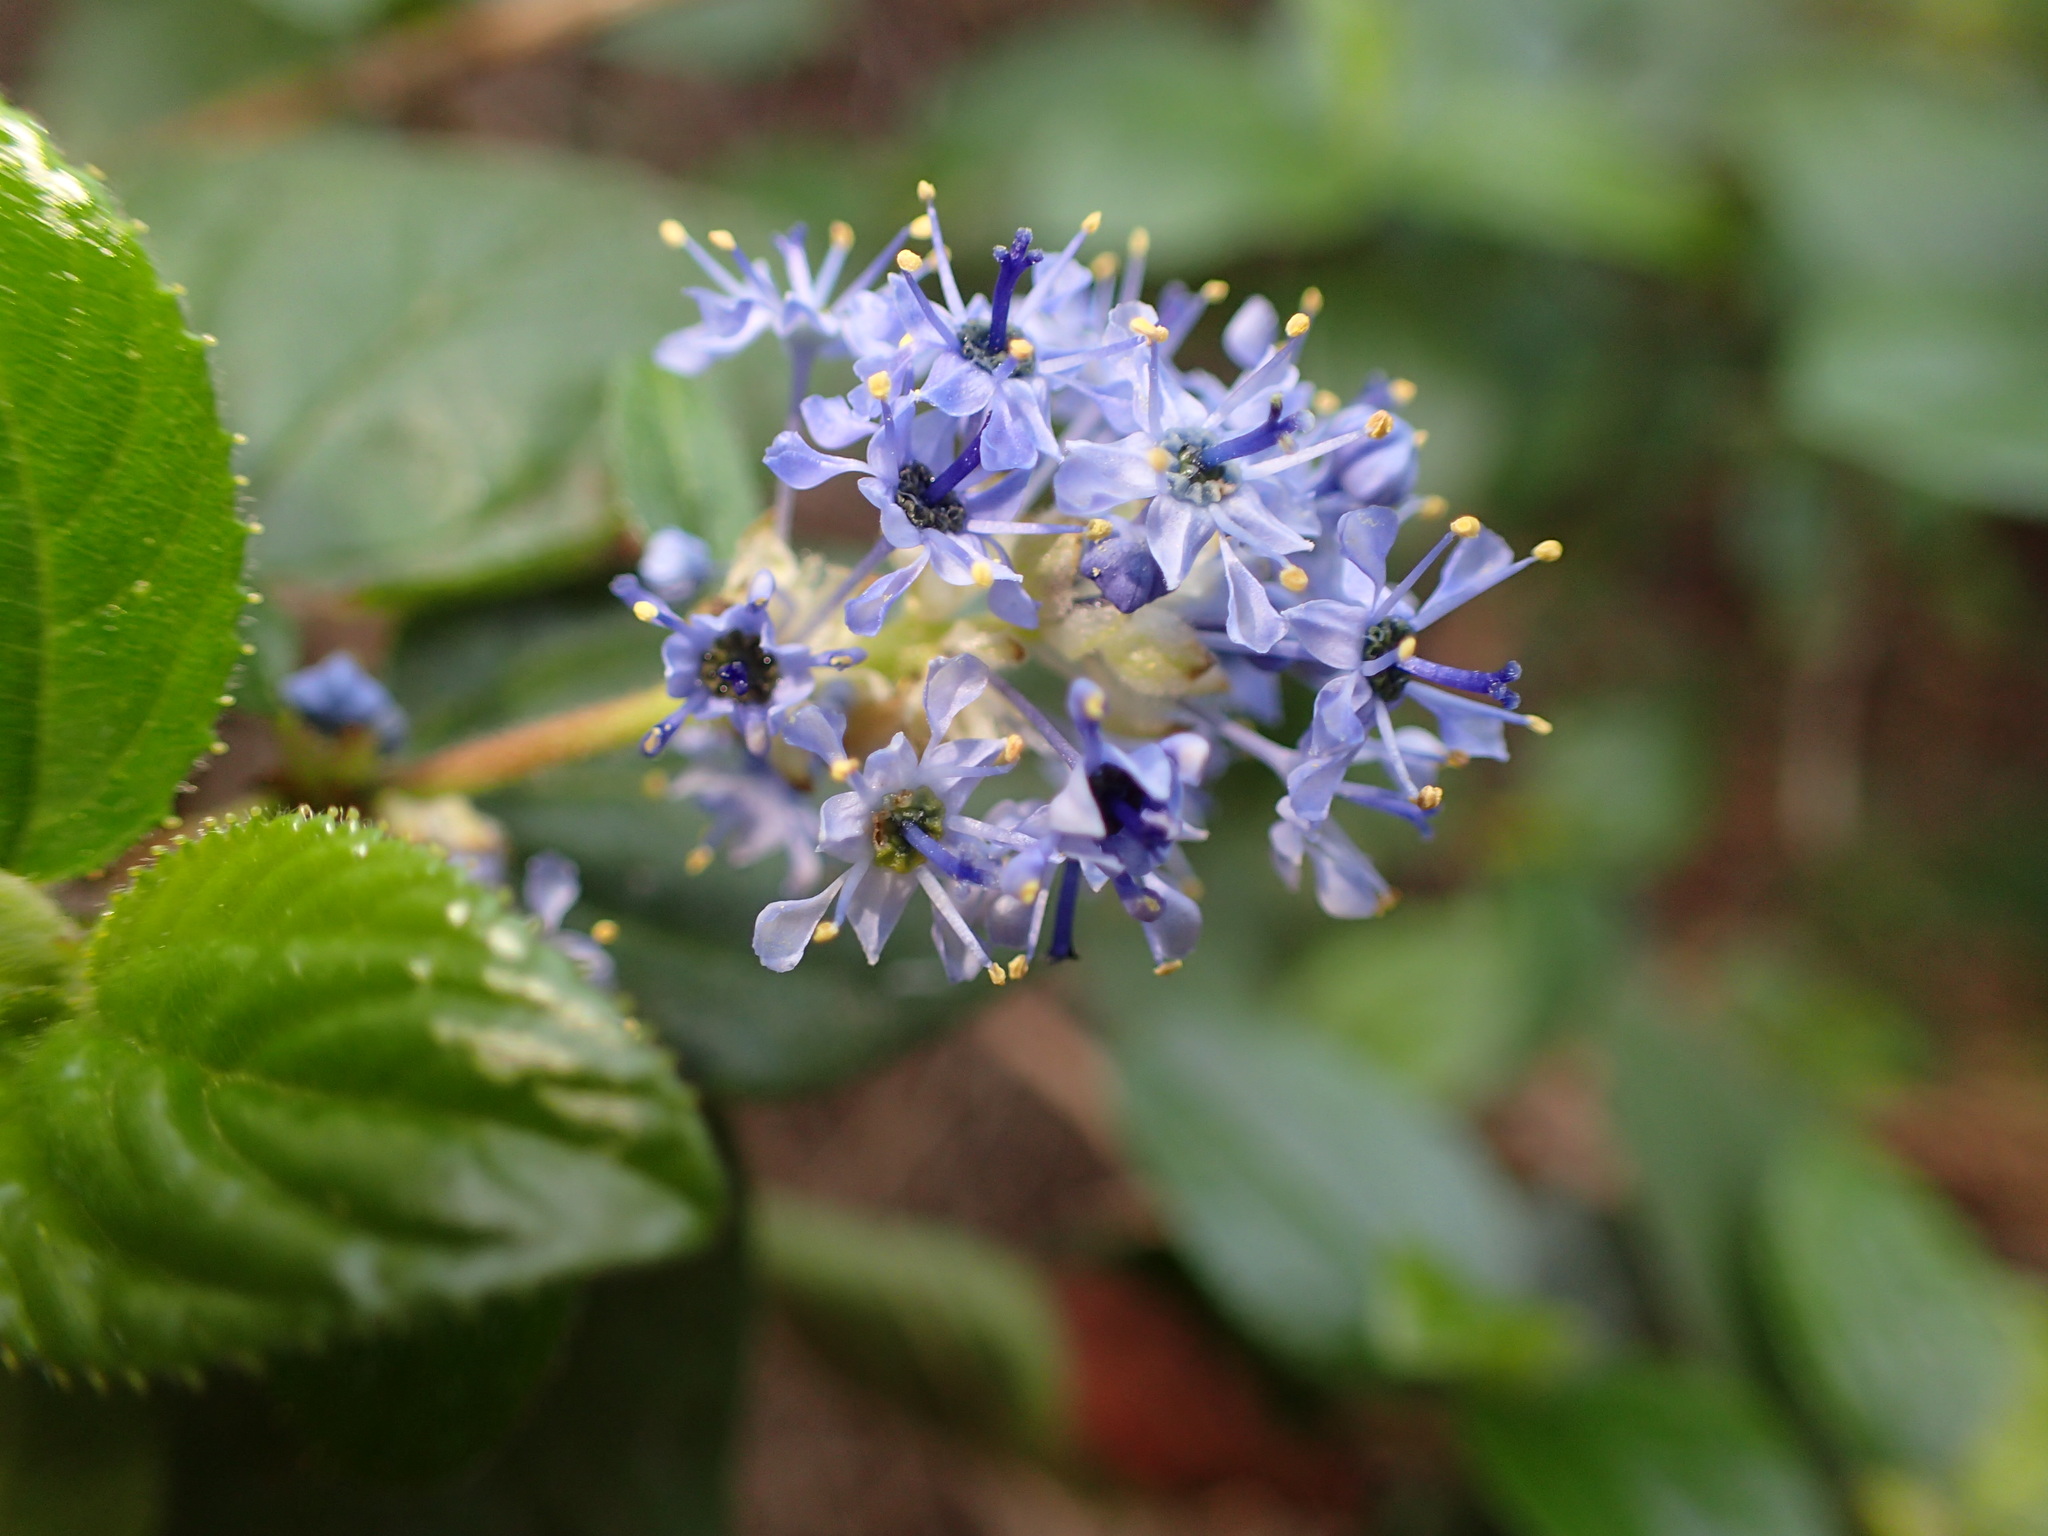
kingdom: Plantae
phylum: Tracheophyta
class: Magnoliopsida
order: Rosales
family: Rhamnaceae
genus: Ceanothus
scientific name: Ceanothus oliganthus
